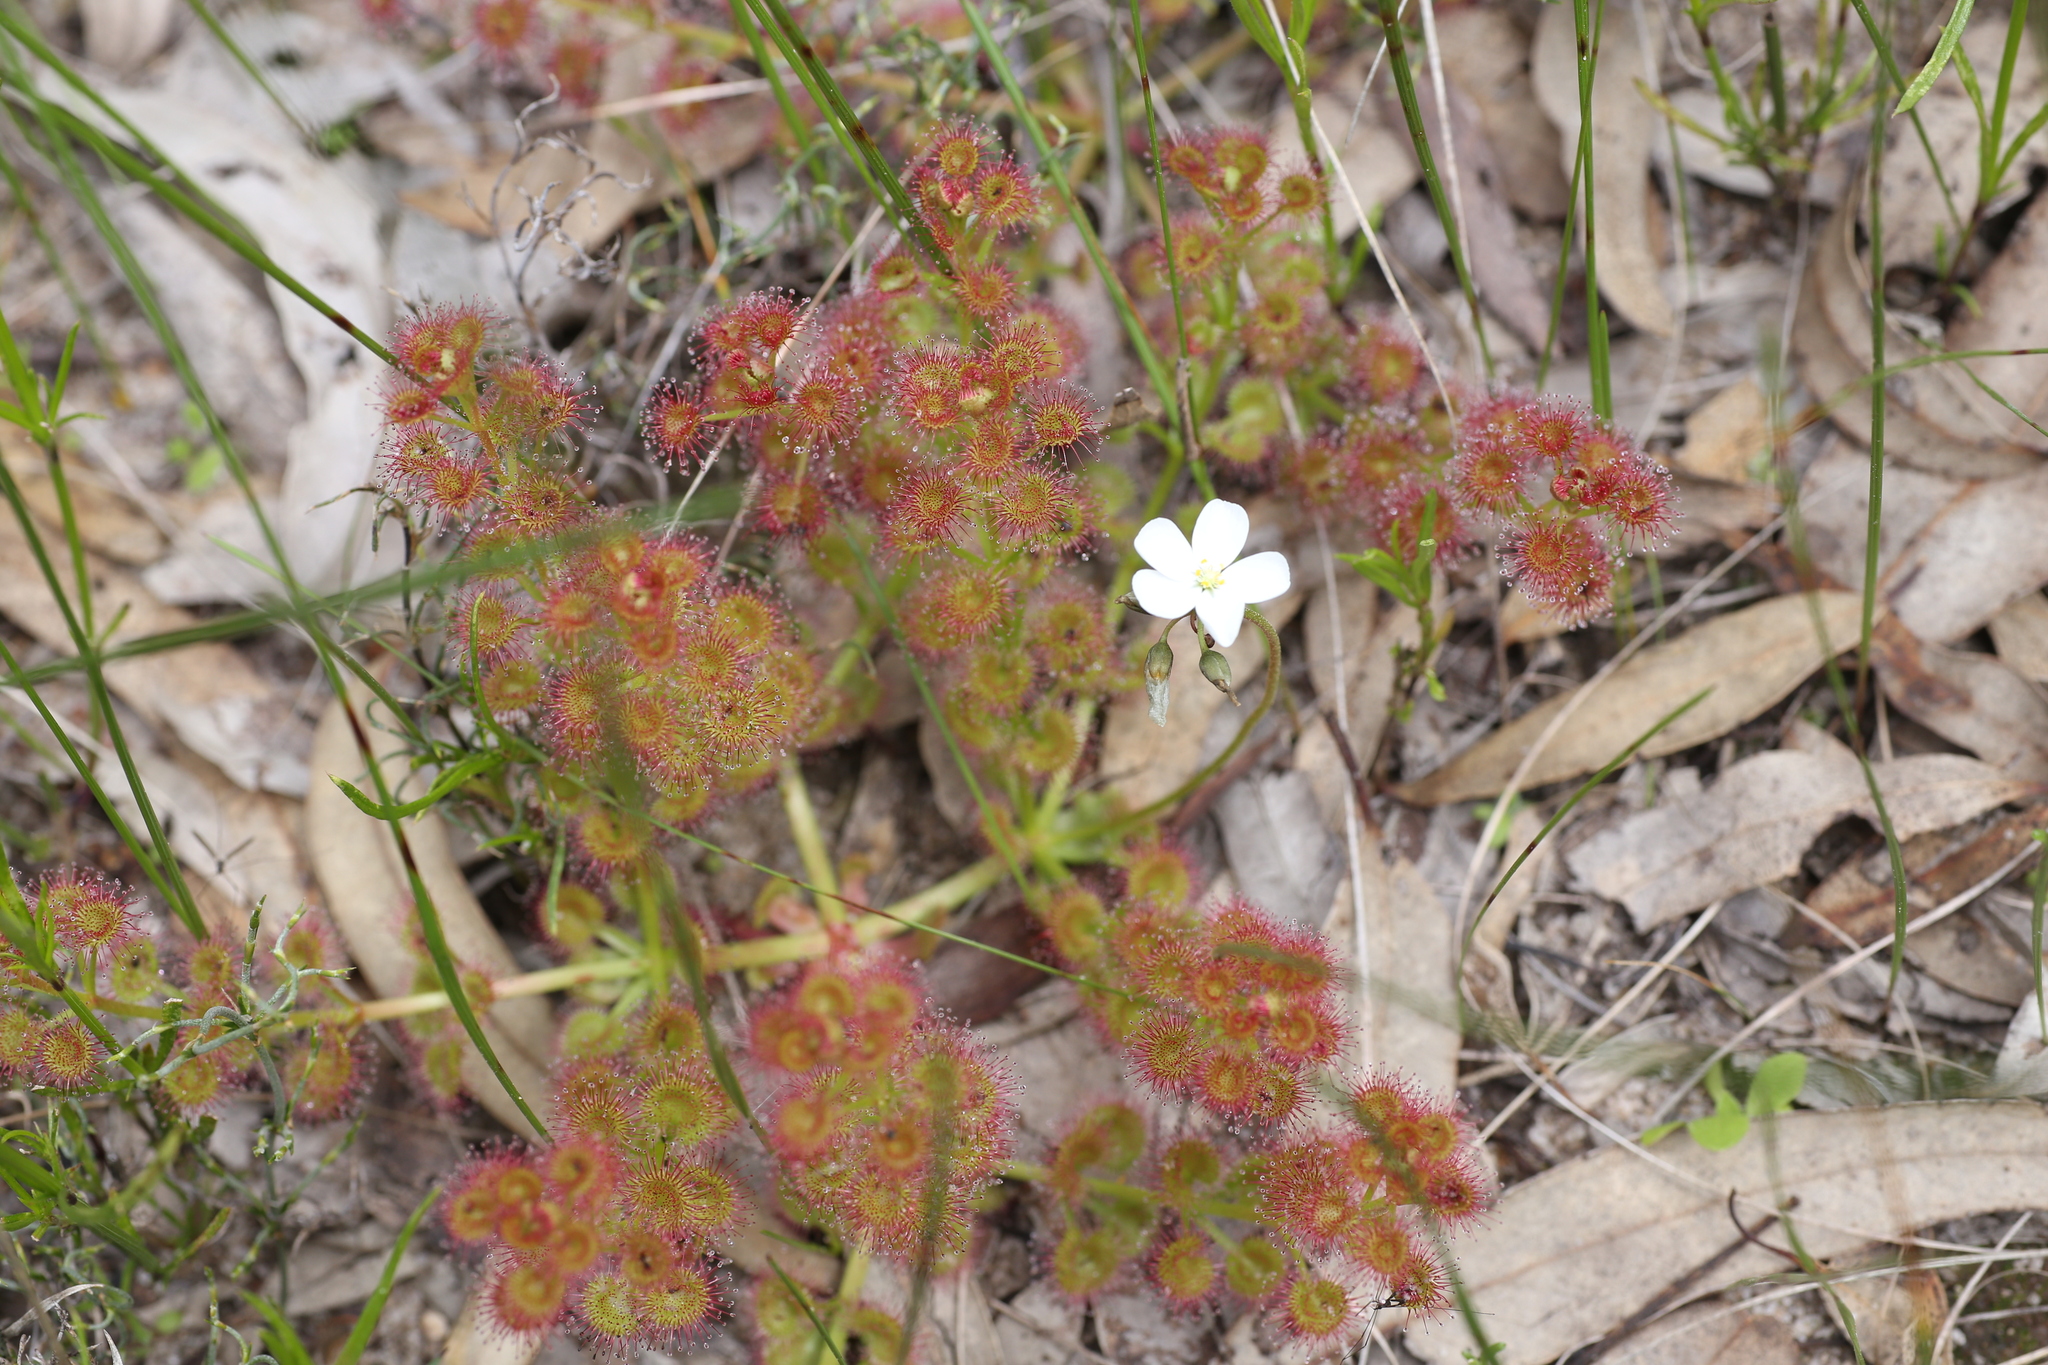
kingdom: Plantae
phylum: Tracheophyta
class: Magnoliopsida
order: Caryophyllales
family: Droseraceae
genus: Drosera
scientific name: Drosera stolonifera
